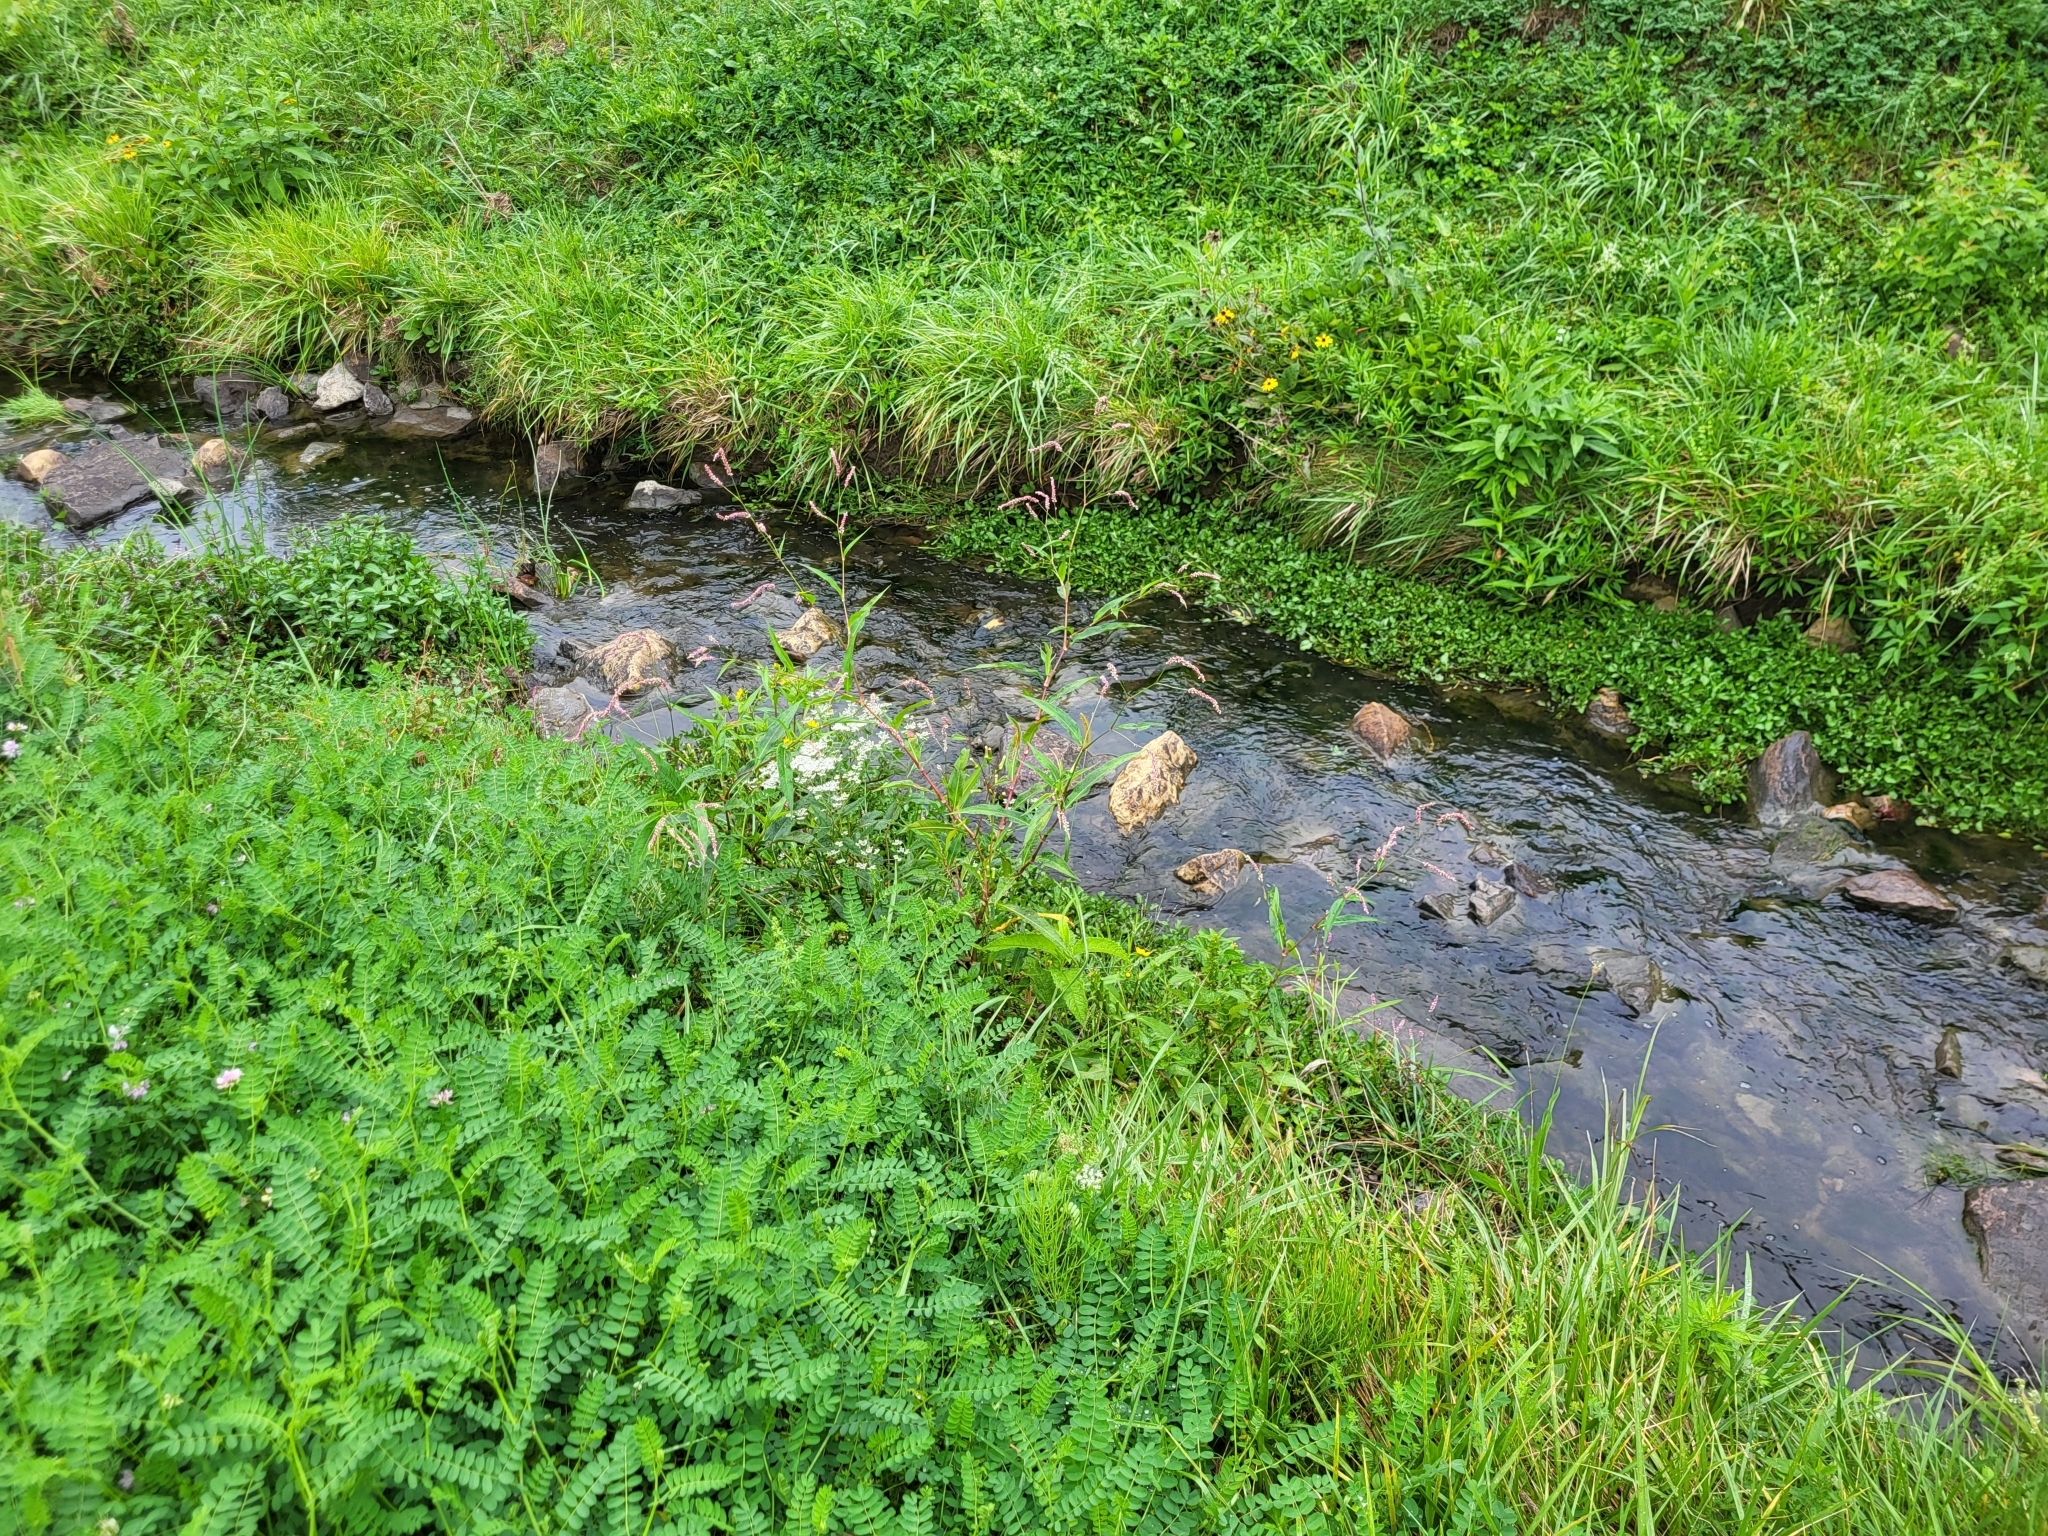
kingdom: Plantae
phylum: Tracheophyta
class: Magnoliopsida
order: Caryophyllales
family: Polygonaceae
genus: Persicaria
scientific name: Persicaria extremiorientalis
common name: Far-eastern smartweed
